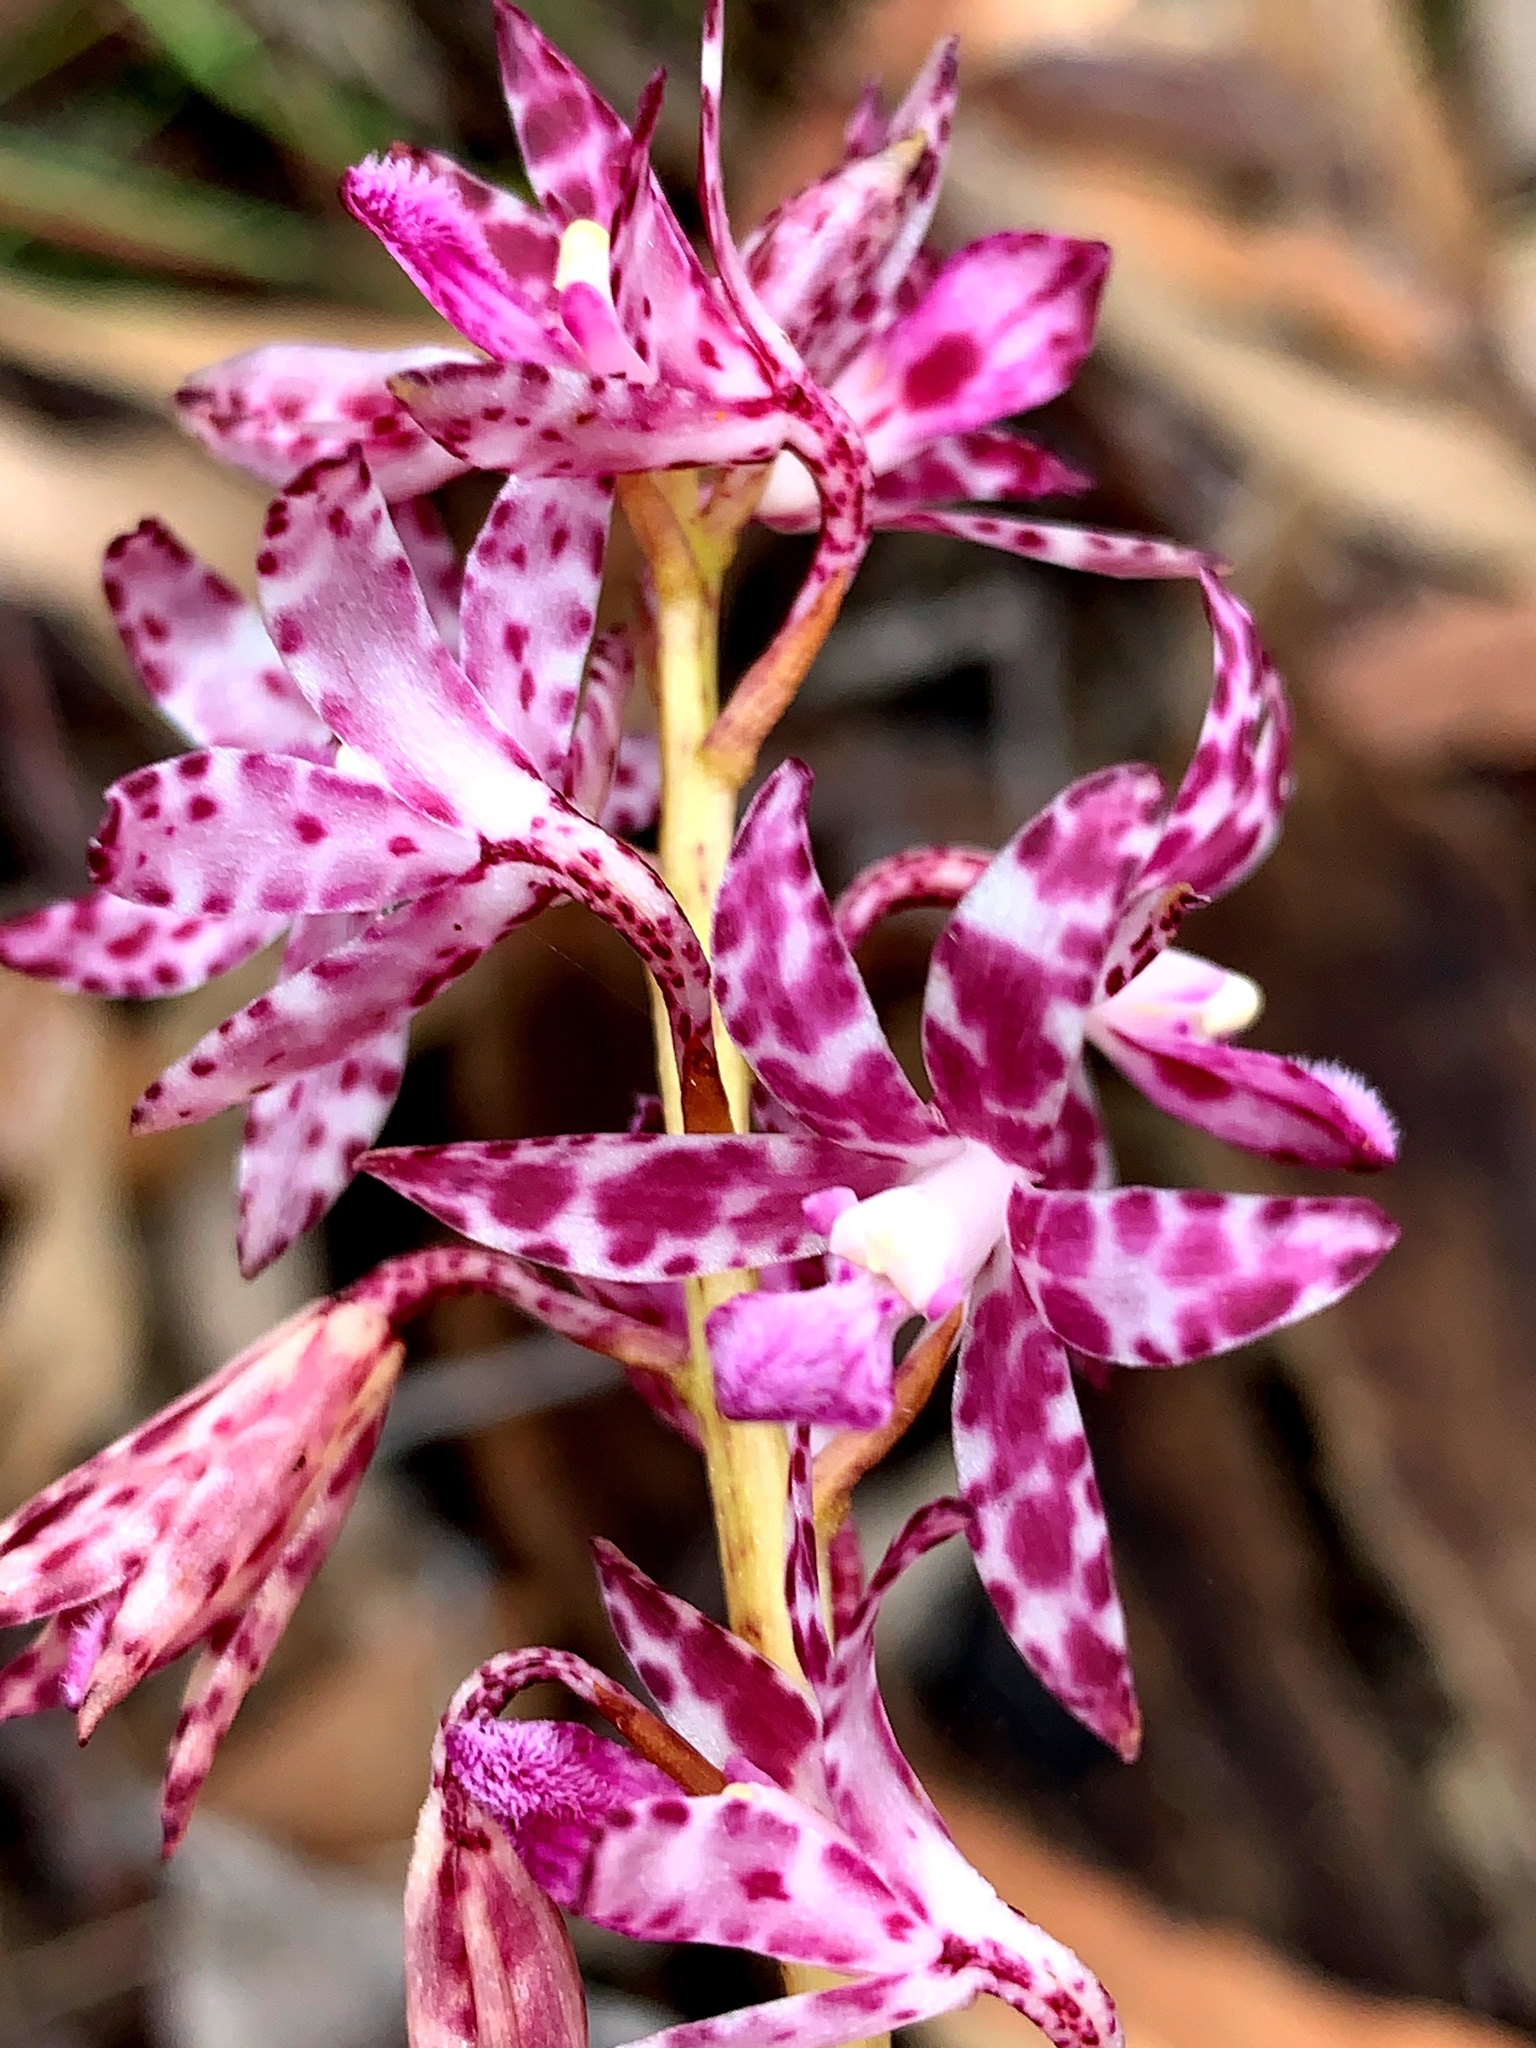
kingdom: Plantae
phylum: Tracheophyta
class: Liliopsida
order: Asparagales
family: Orchidaceae
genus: Dipodium
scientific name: Dipodium variegatum
